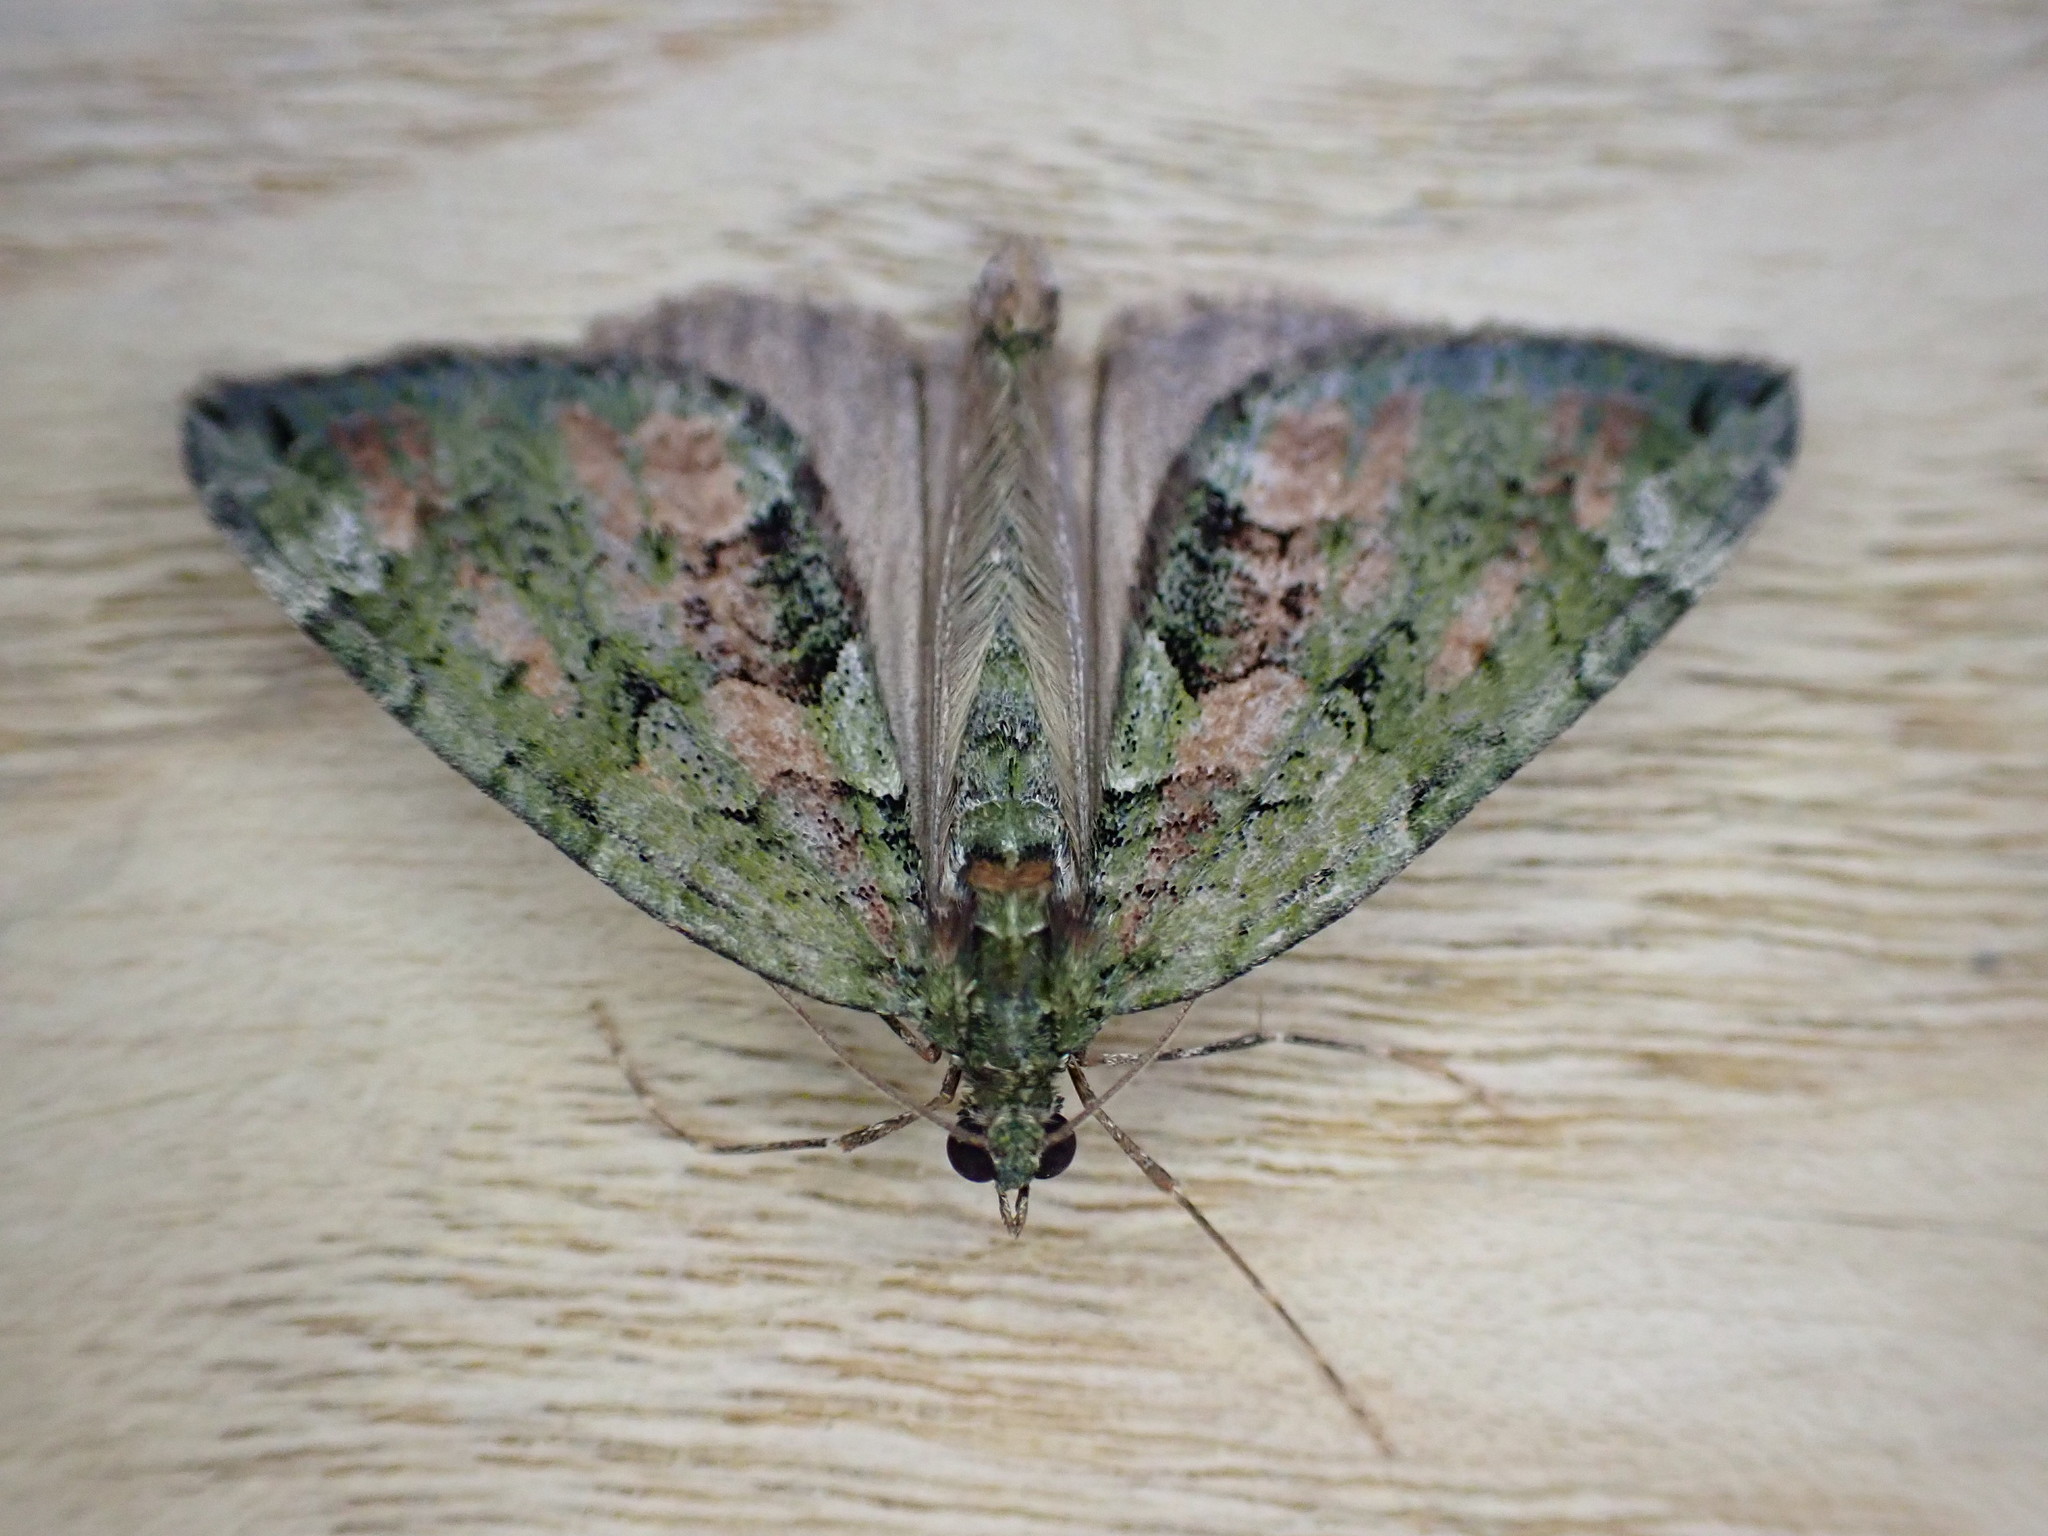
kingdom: Animalia
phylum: Arthropoda
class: Insecta
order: Lepidoptera
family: Geometridae
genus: Chloroclysta
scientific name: Chloroclysta siterata
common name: Red-green carpet
